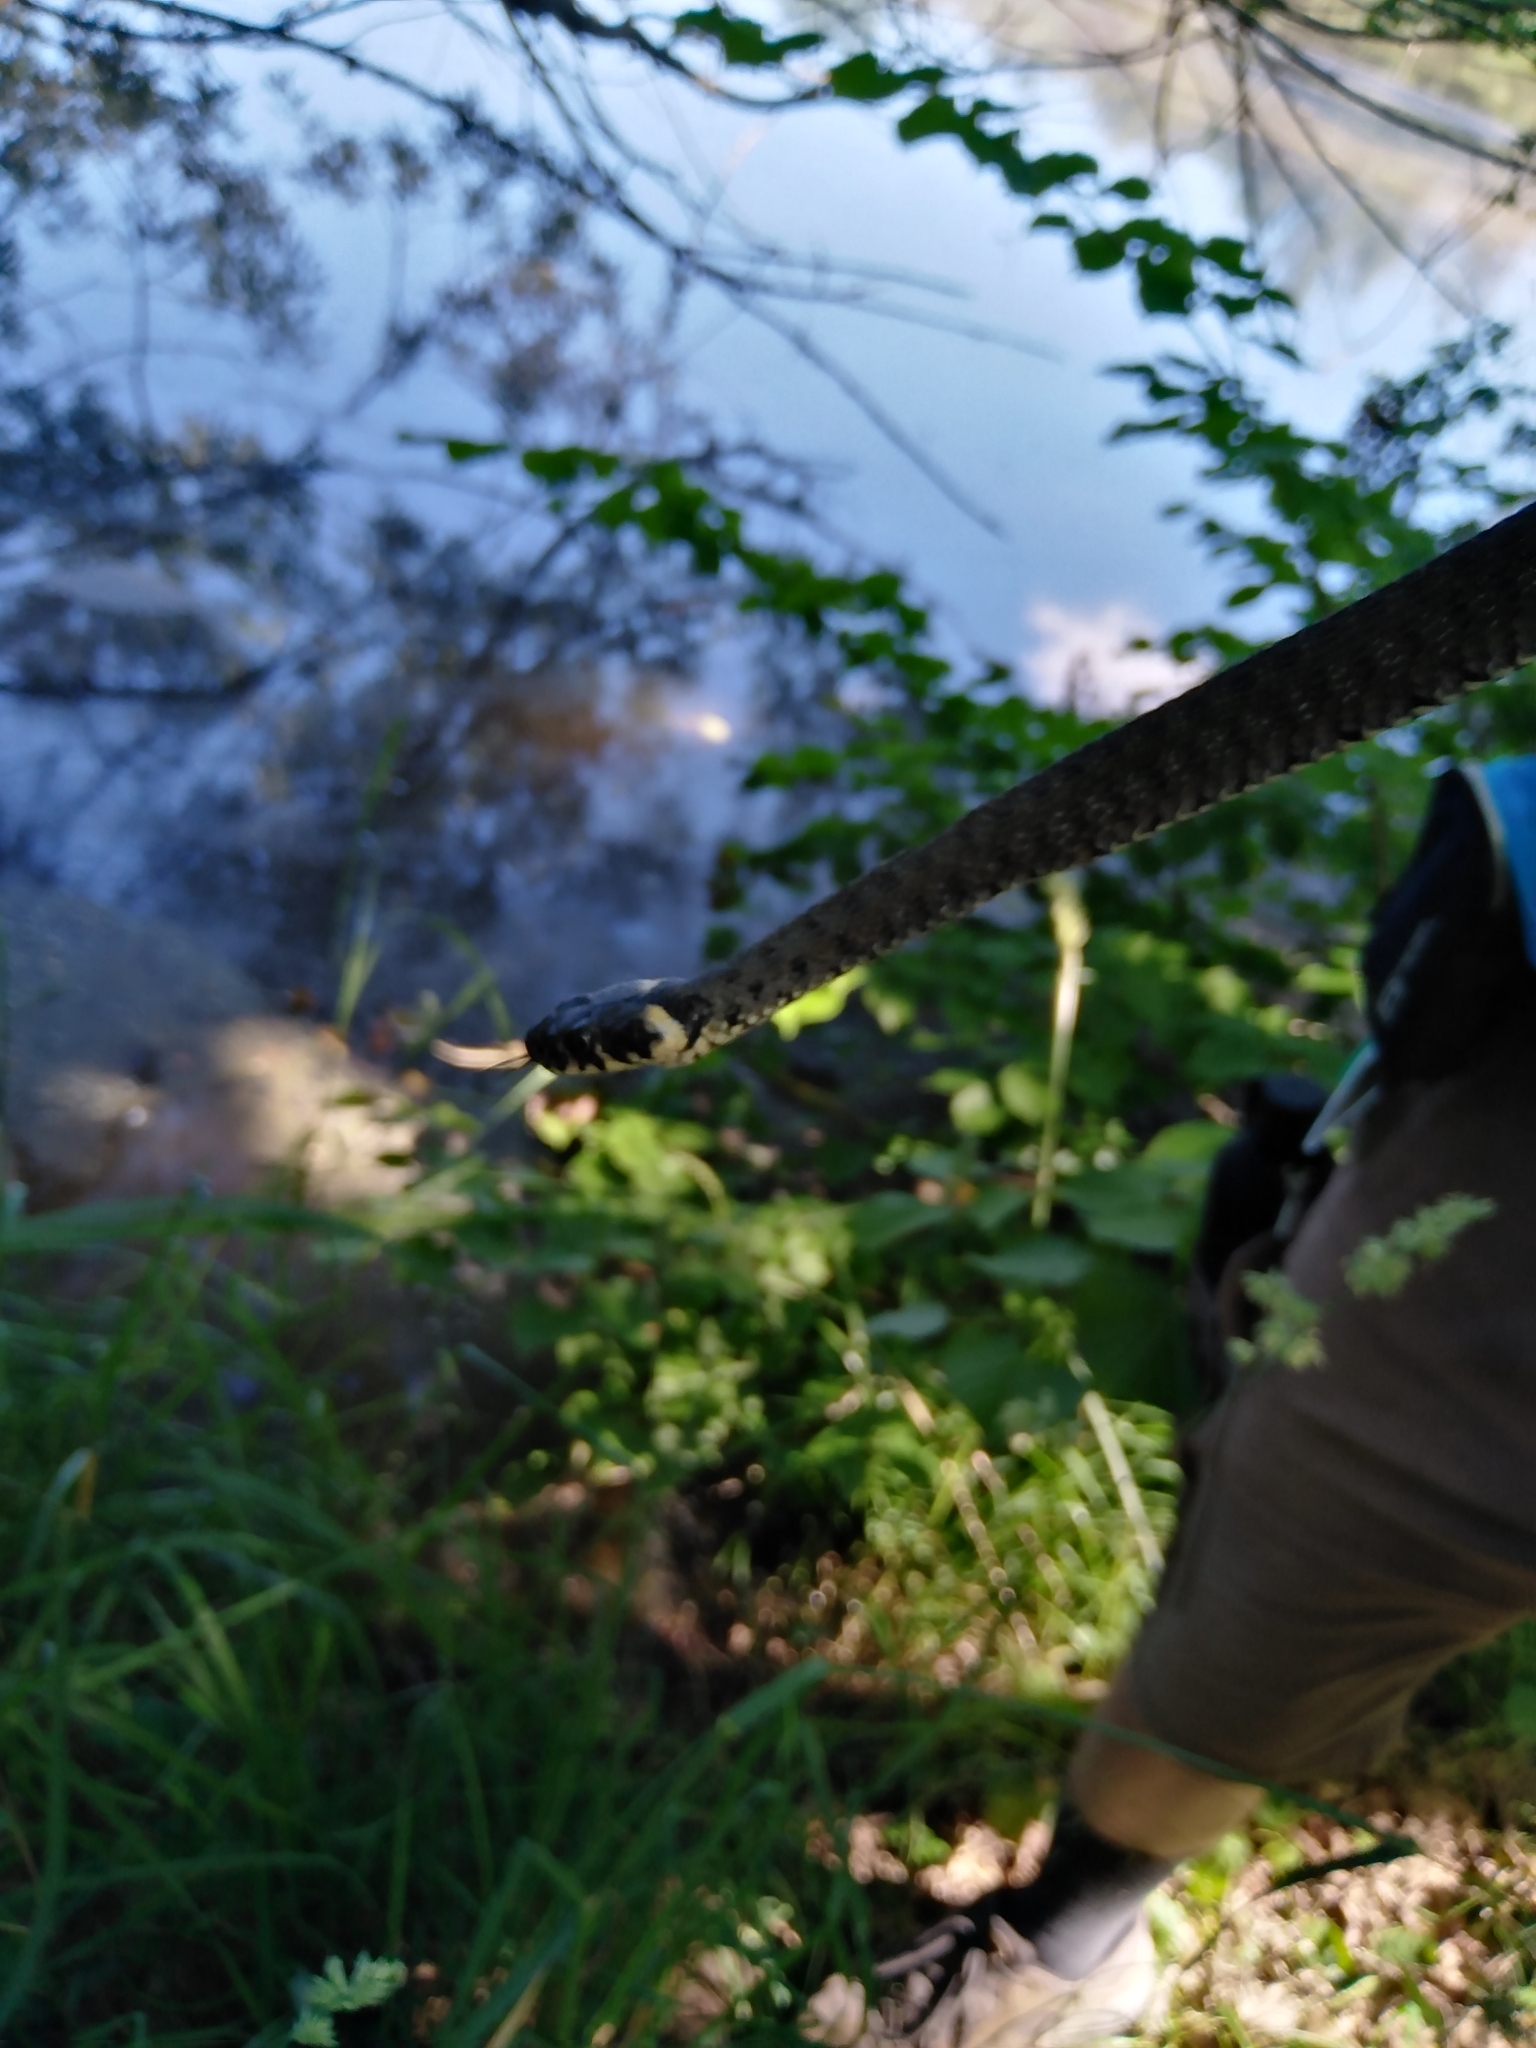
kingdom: Animalia
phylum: Chordata
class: Squamata
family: Colubridae
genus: Natrix
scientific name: Natrix natrix
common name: Grass snake
